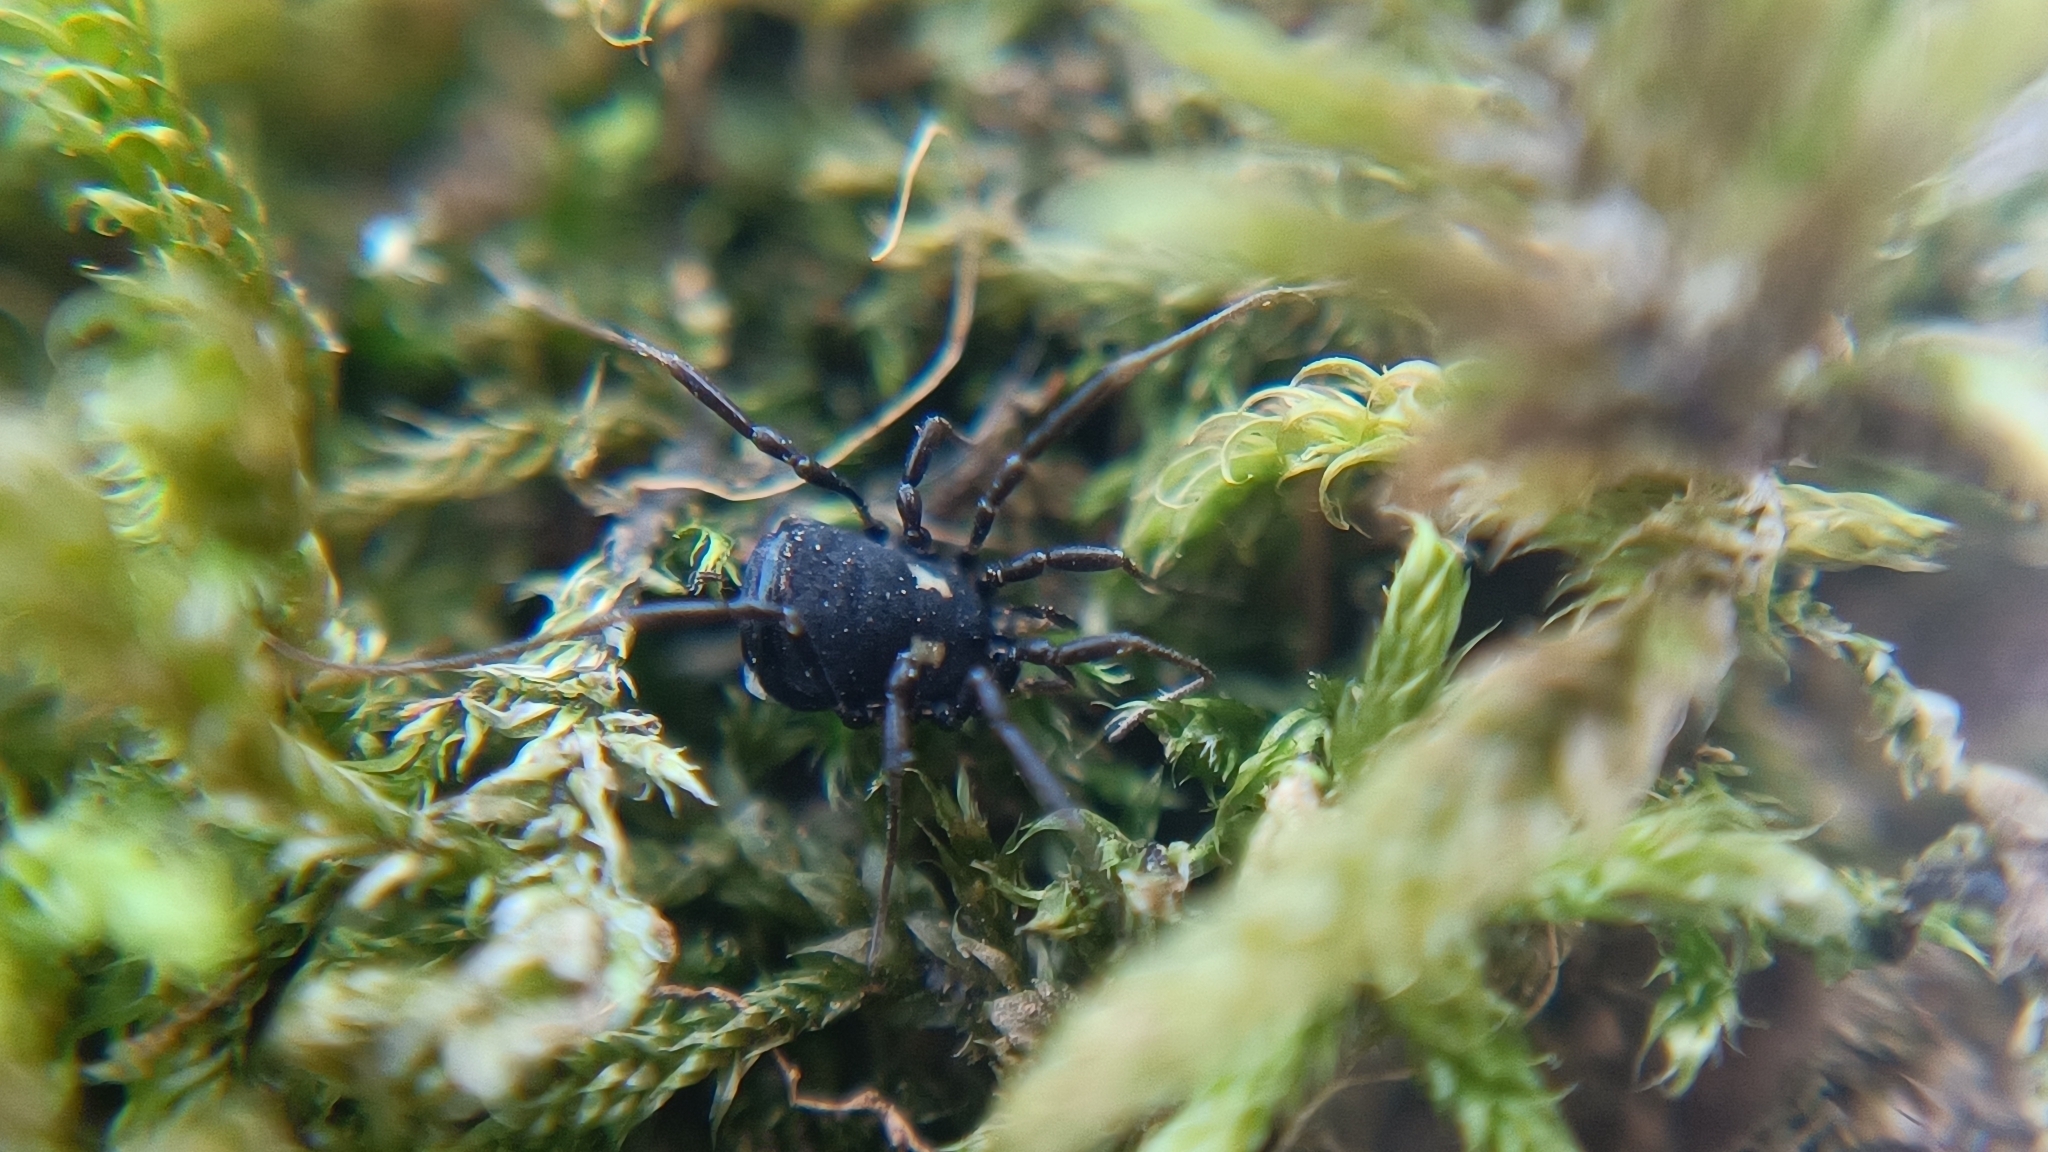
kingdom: Animalia
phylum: Arthropoda
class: Arachnida
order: Opiliones
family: Nemastomatidae
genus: Nemastoma
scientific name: Nemastoma bimaculatum
